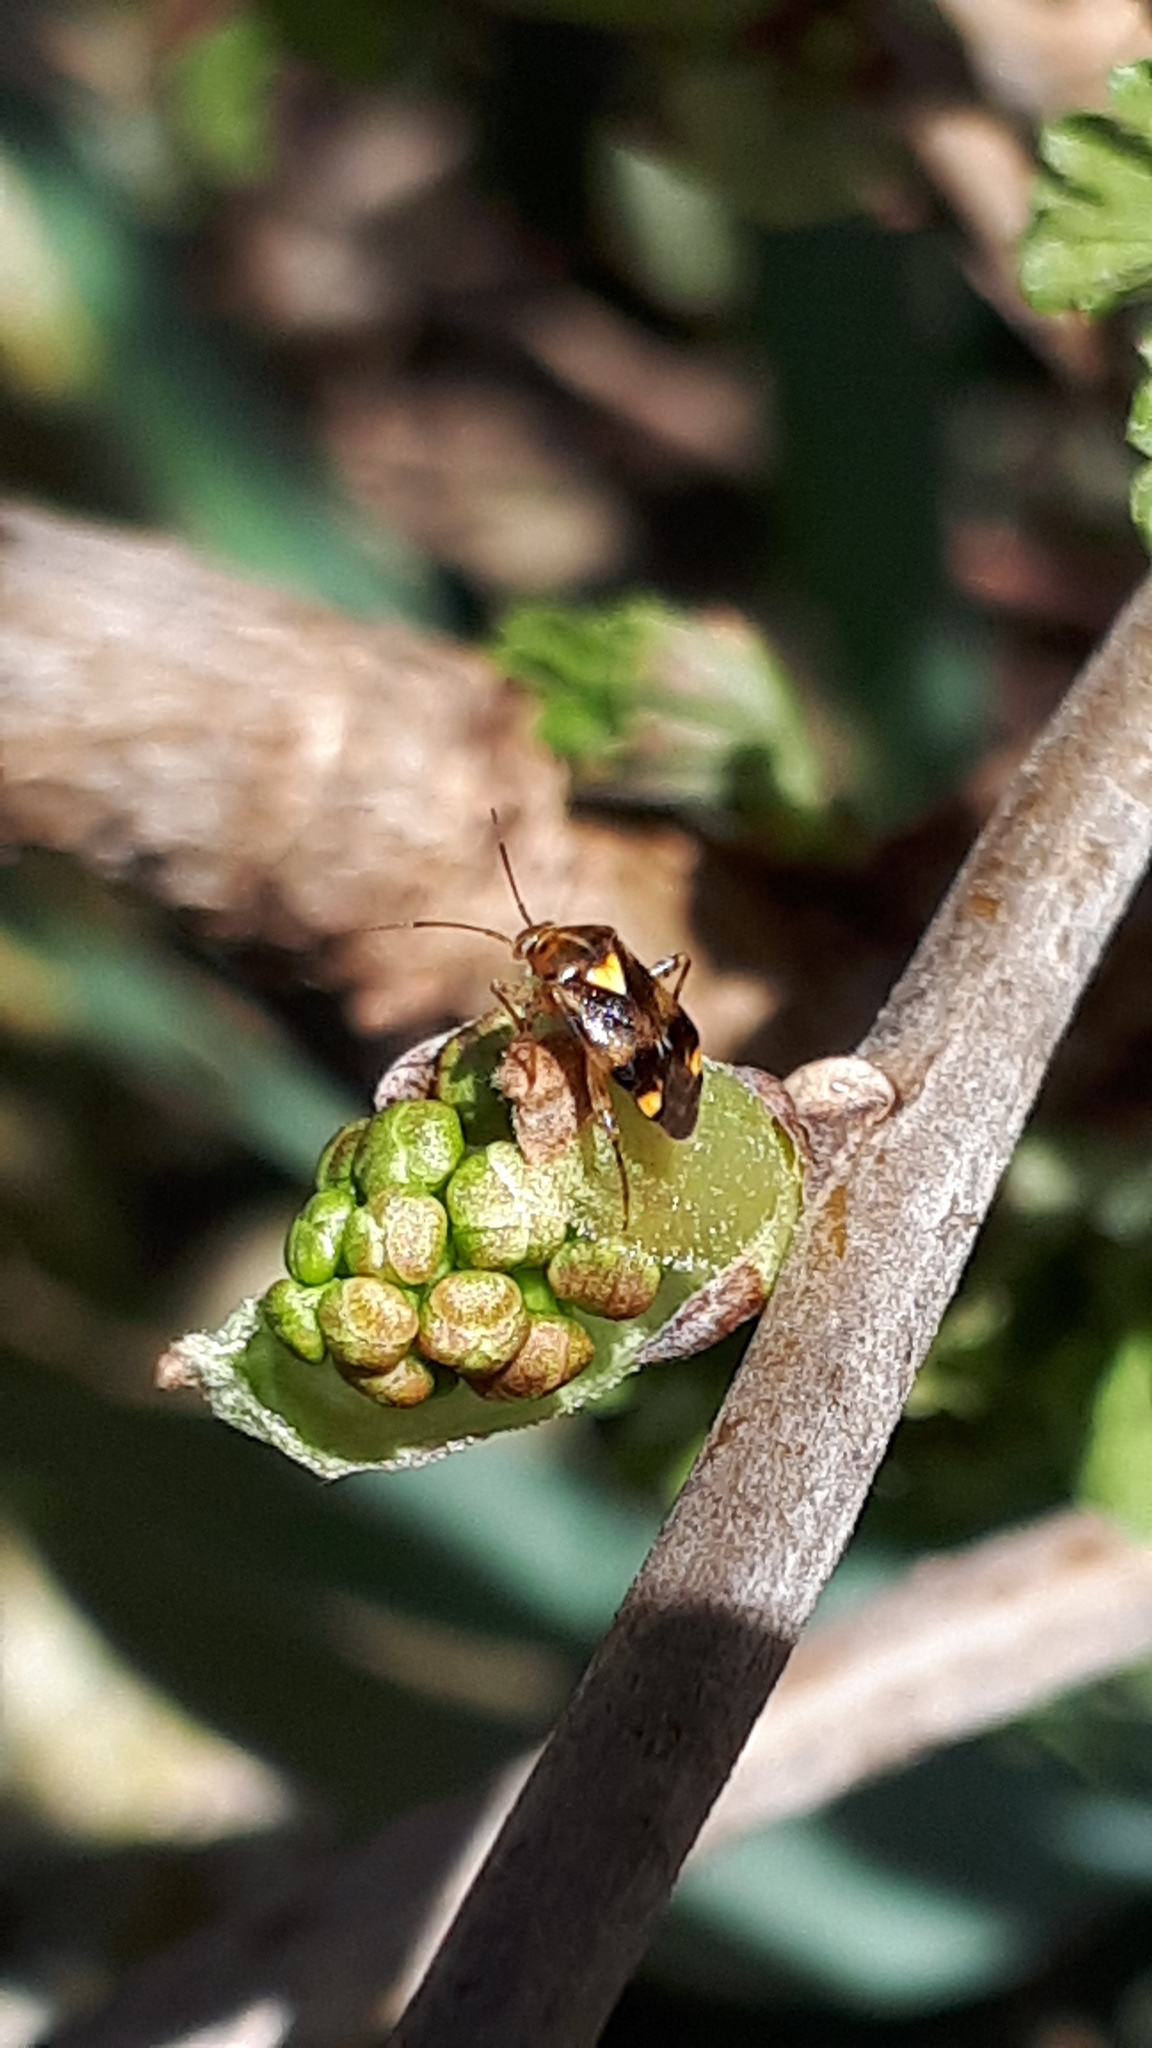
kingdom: Animalia
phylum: Arthropoda
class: Insecta
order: Hemiptera
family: Miridae
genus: Liocoris
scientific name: Liocoris tripustulatus
